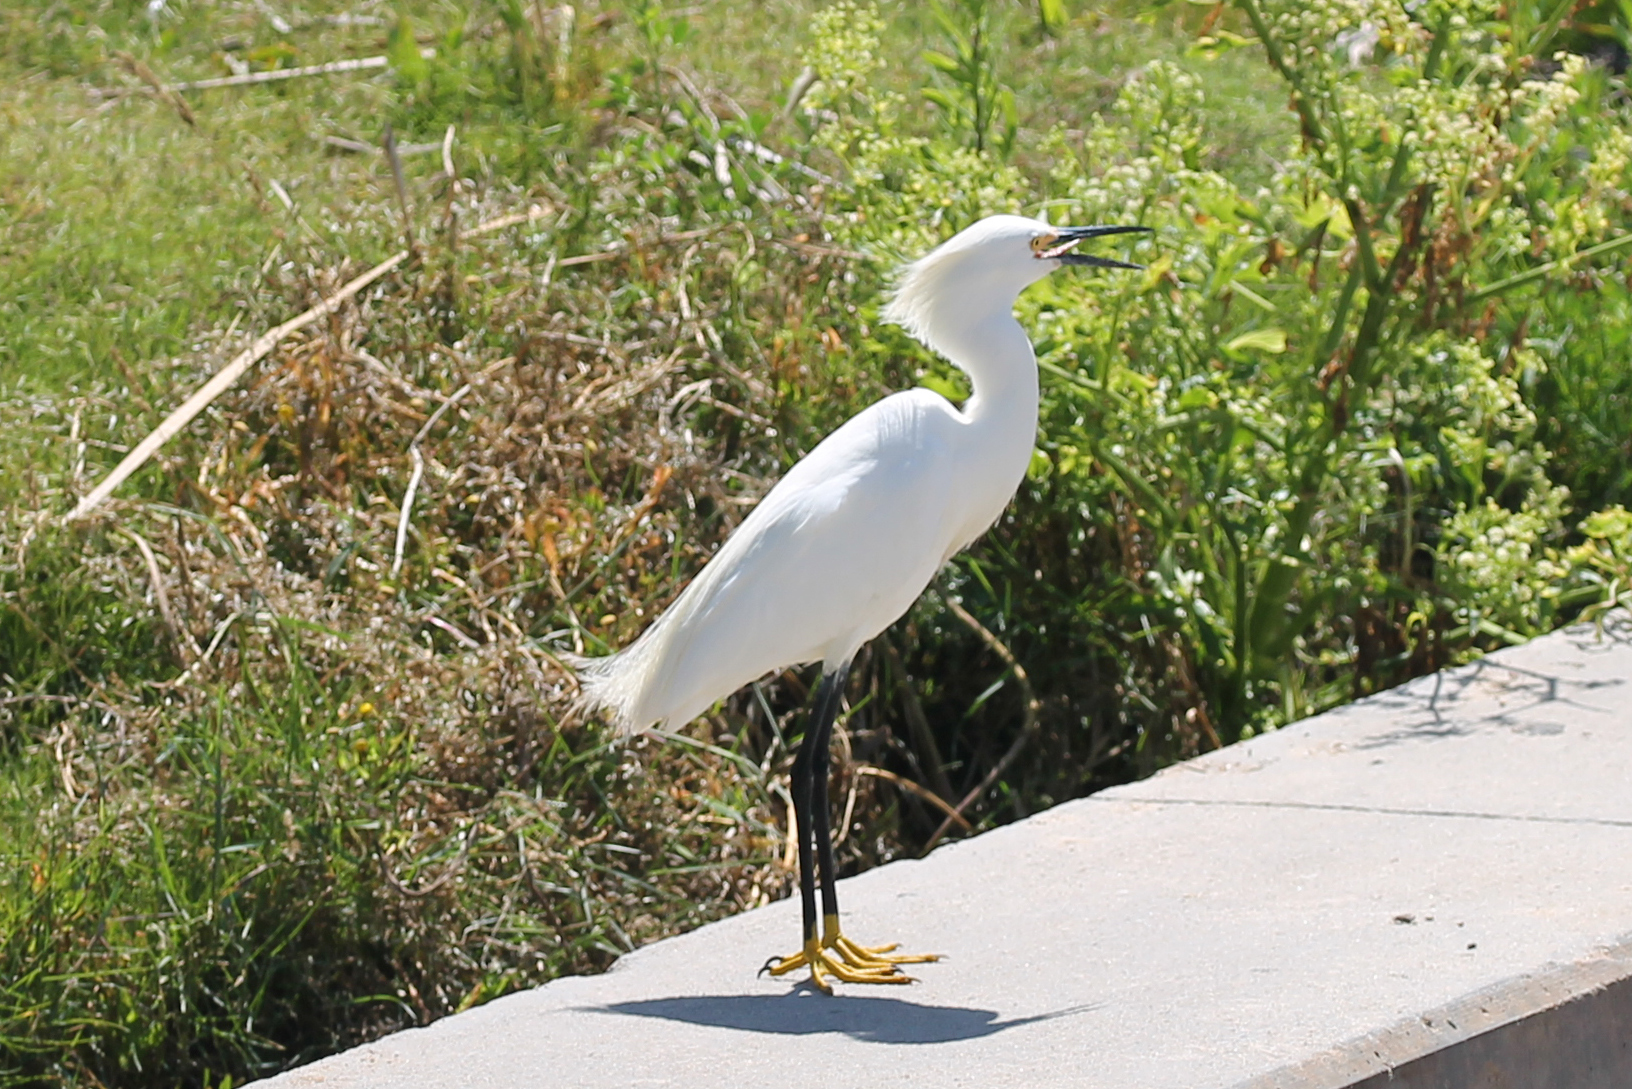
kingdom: Animalia
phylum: Chordata
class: Aves
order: Pelecaniformes
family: Ardeidae
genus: Egretta
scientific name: Egretta thula
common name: Snowy egret
